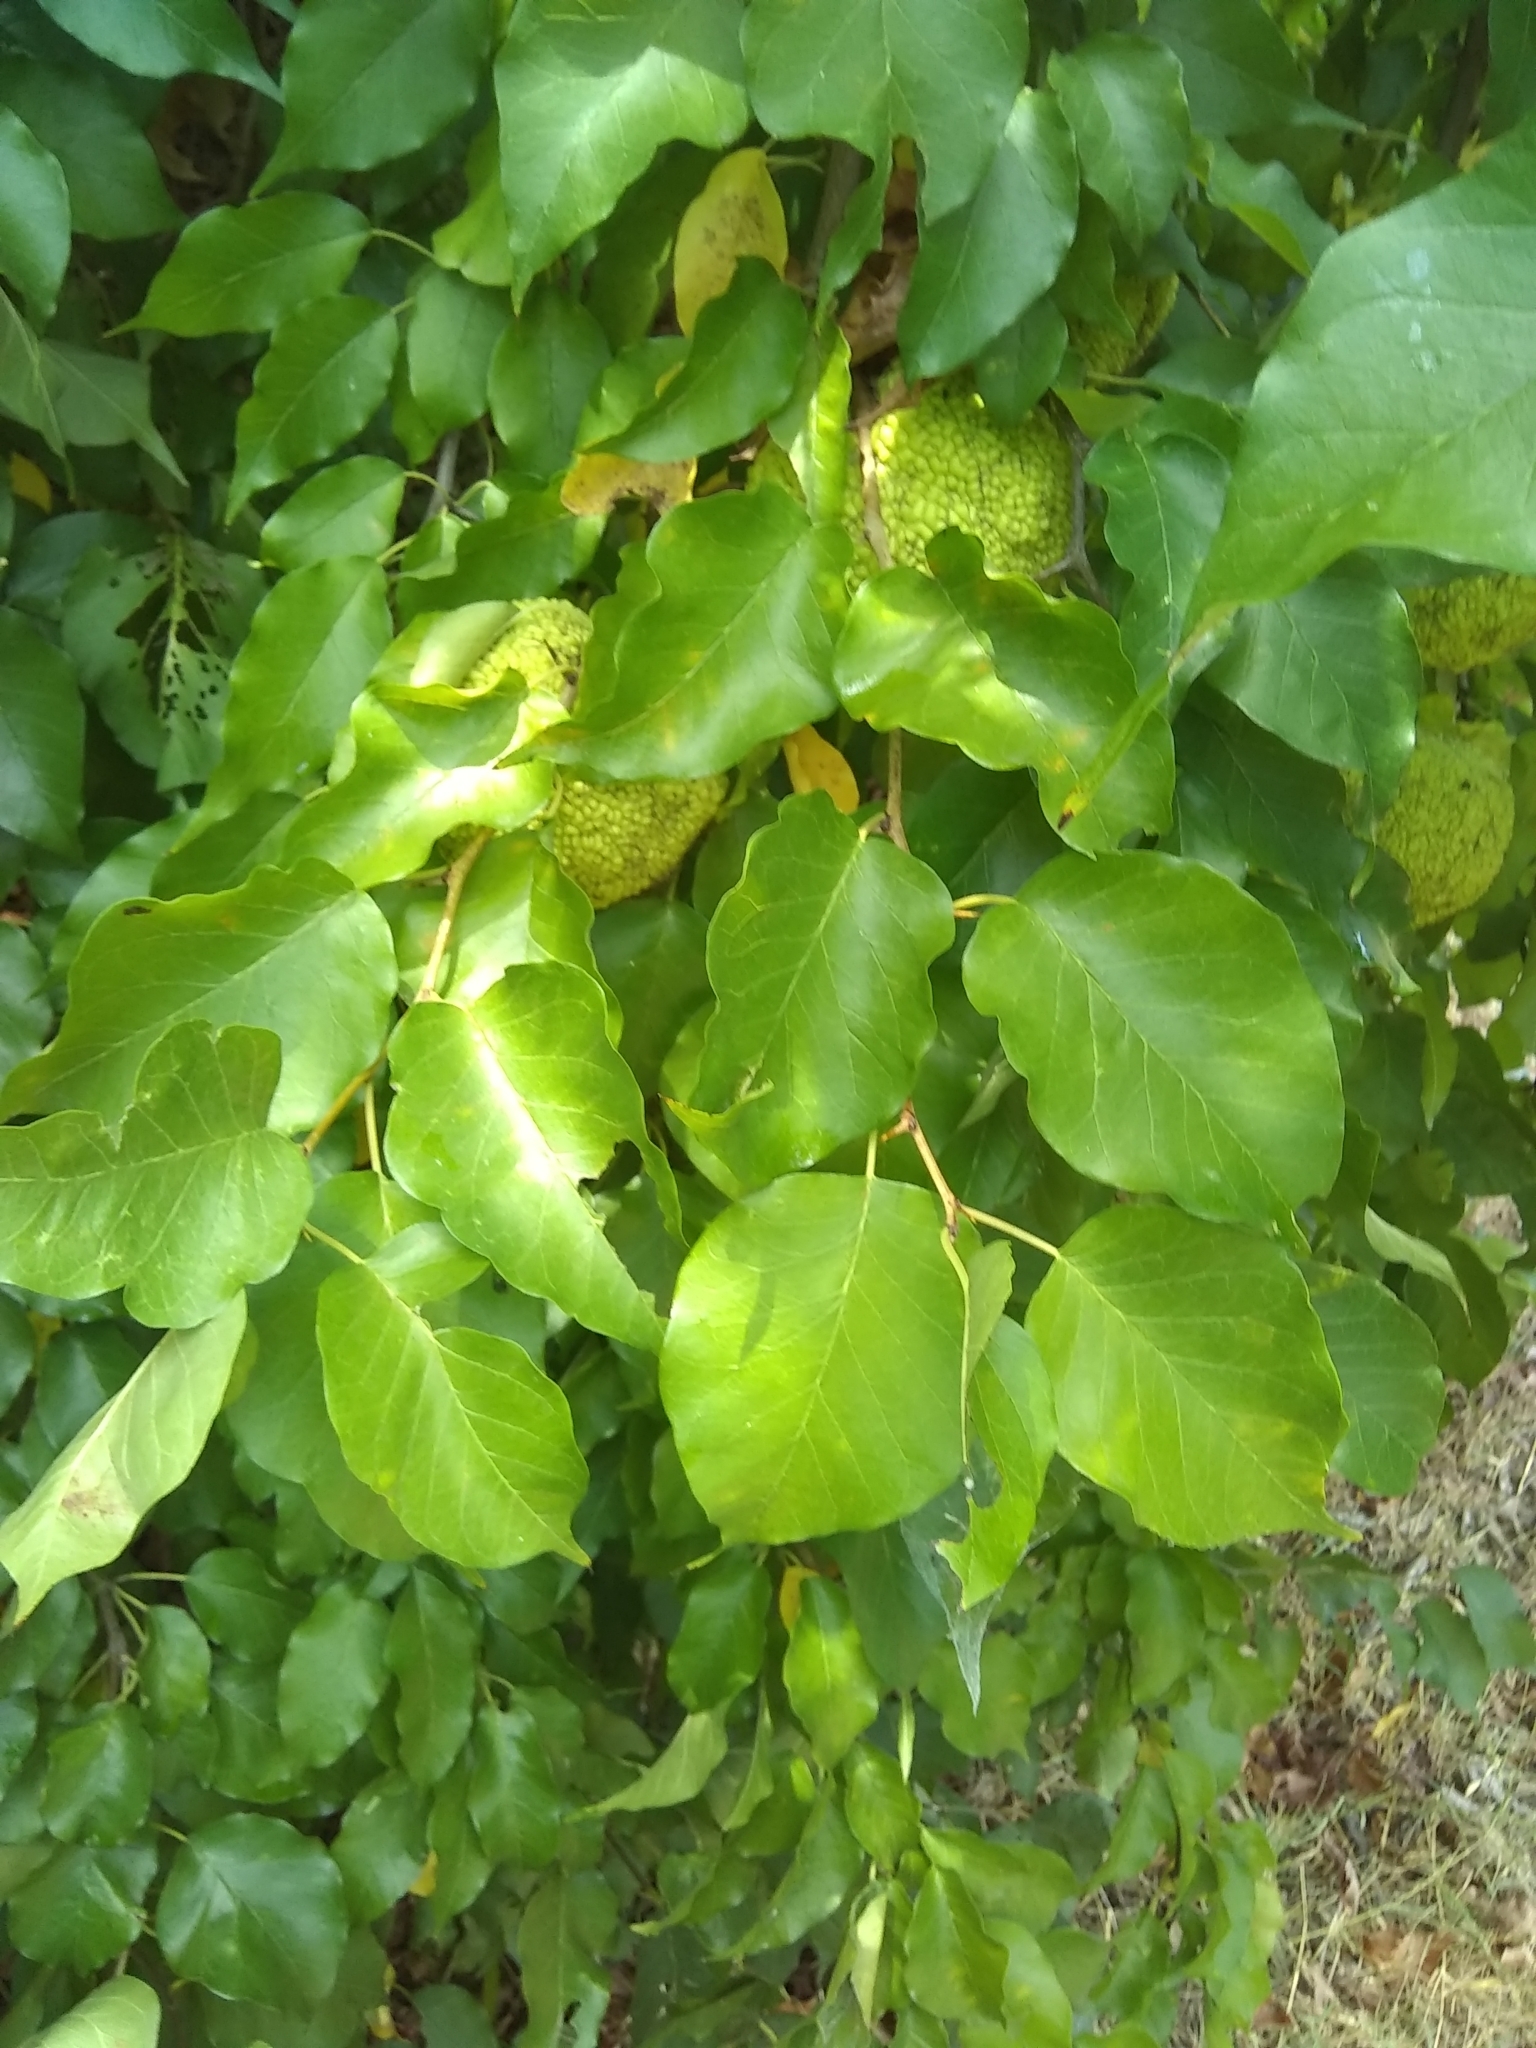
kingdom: Plantae
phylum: Tracheophyta
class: Magnoliopsida
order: Rosales
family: Moraceae
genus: Maclura
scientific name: Maclura pomifera
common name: Osage-orange
